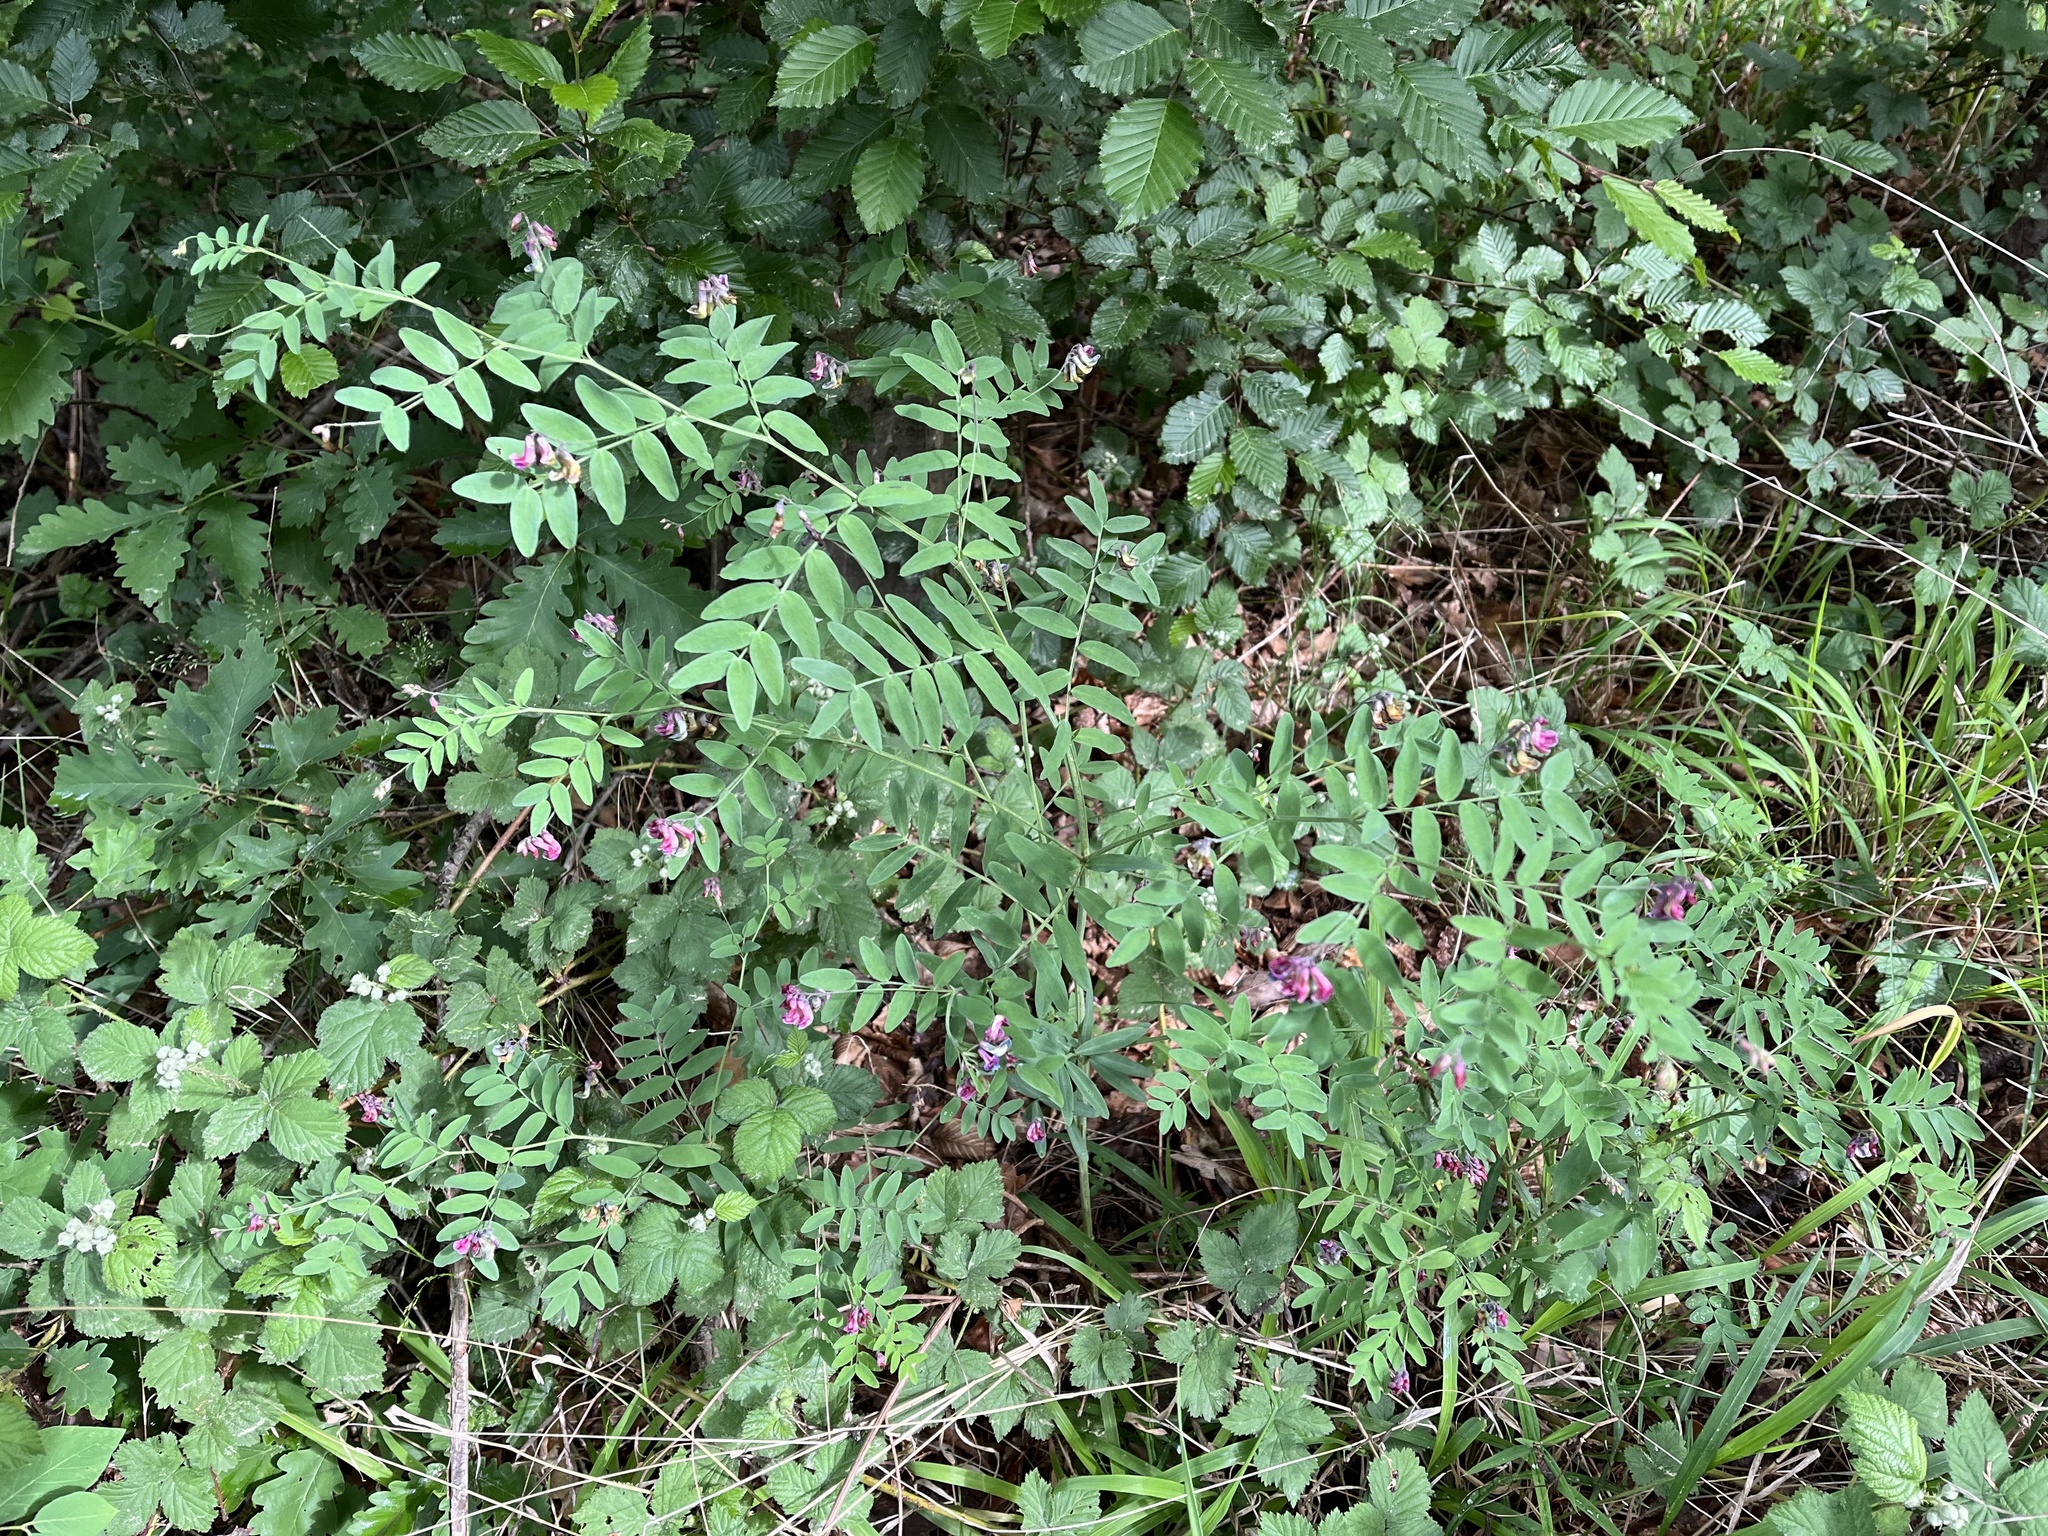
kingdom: Plantae
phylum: Tracheophyta
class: Magnoliopsida
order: Fabales
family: Fabaceae
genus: Lathyrus
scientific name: Lathyrus niger
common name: Black pea
